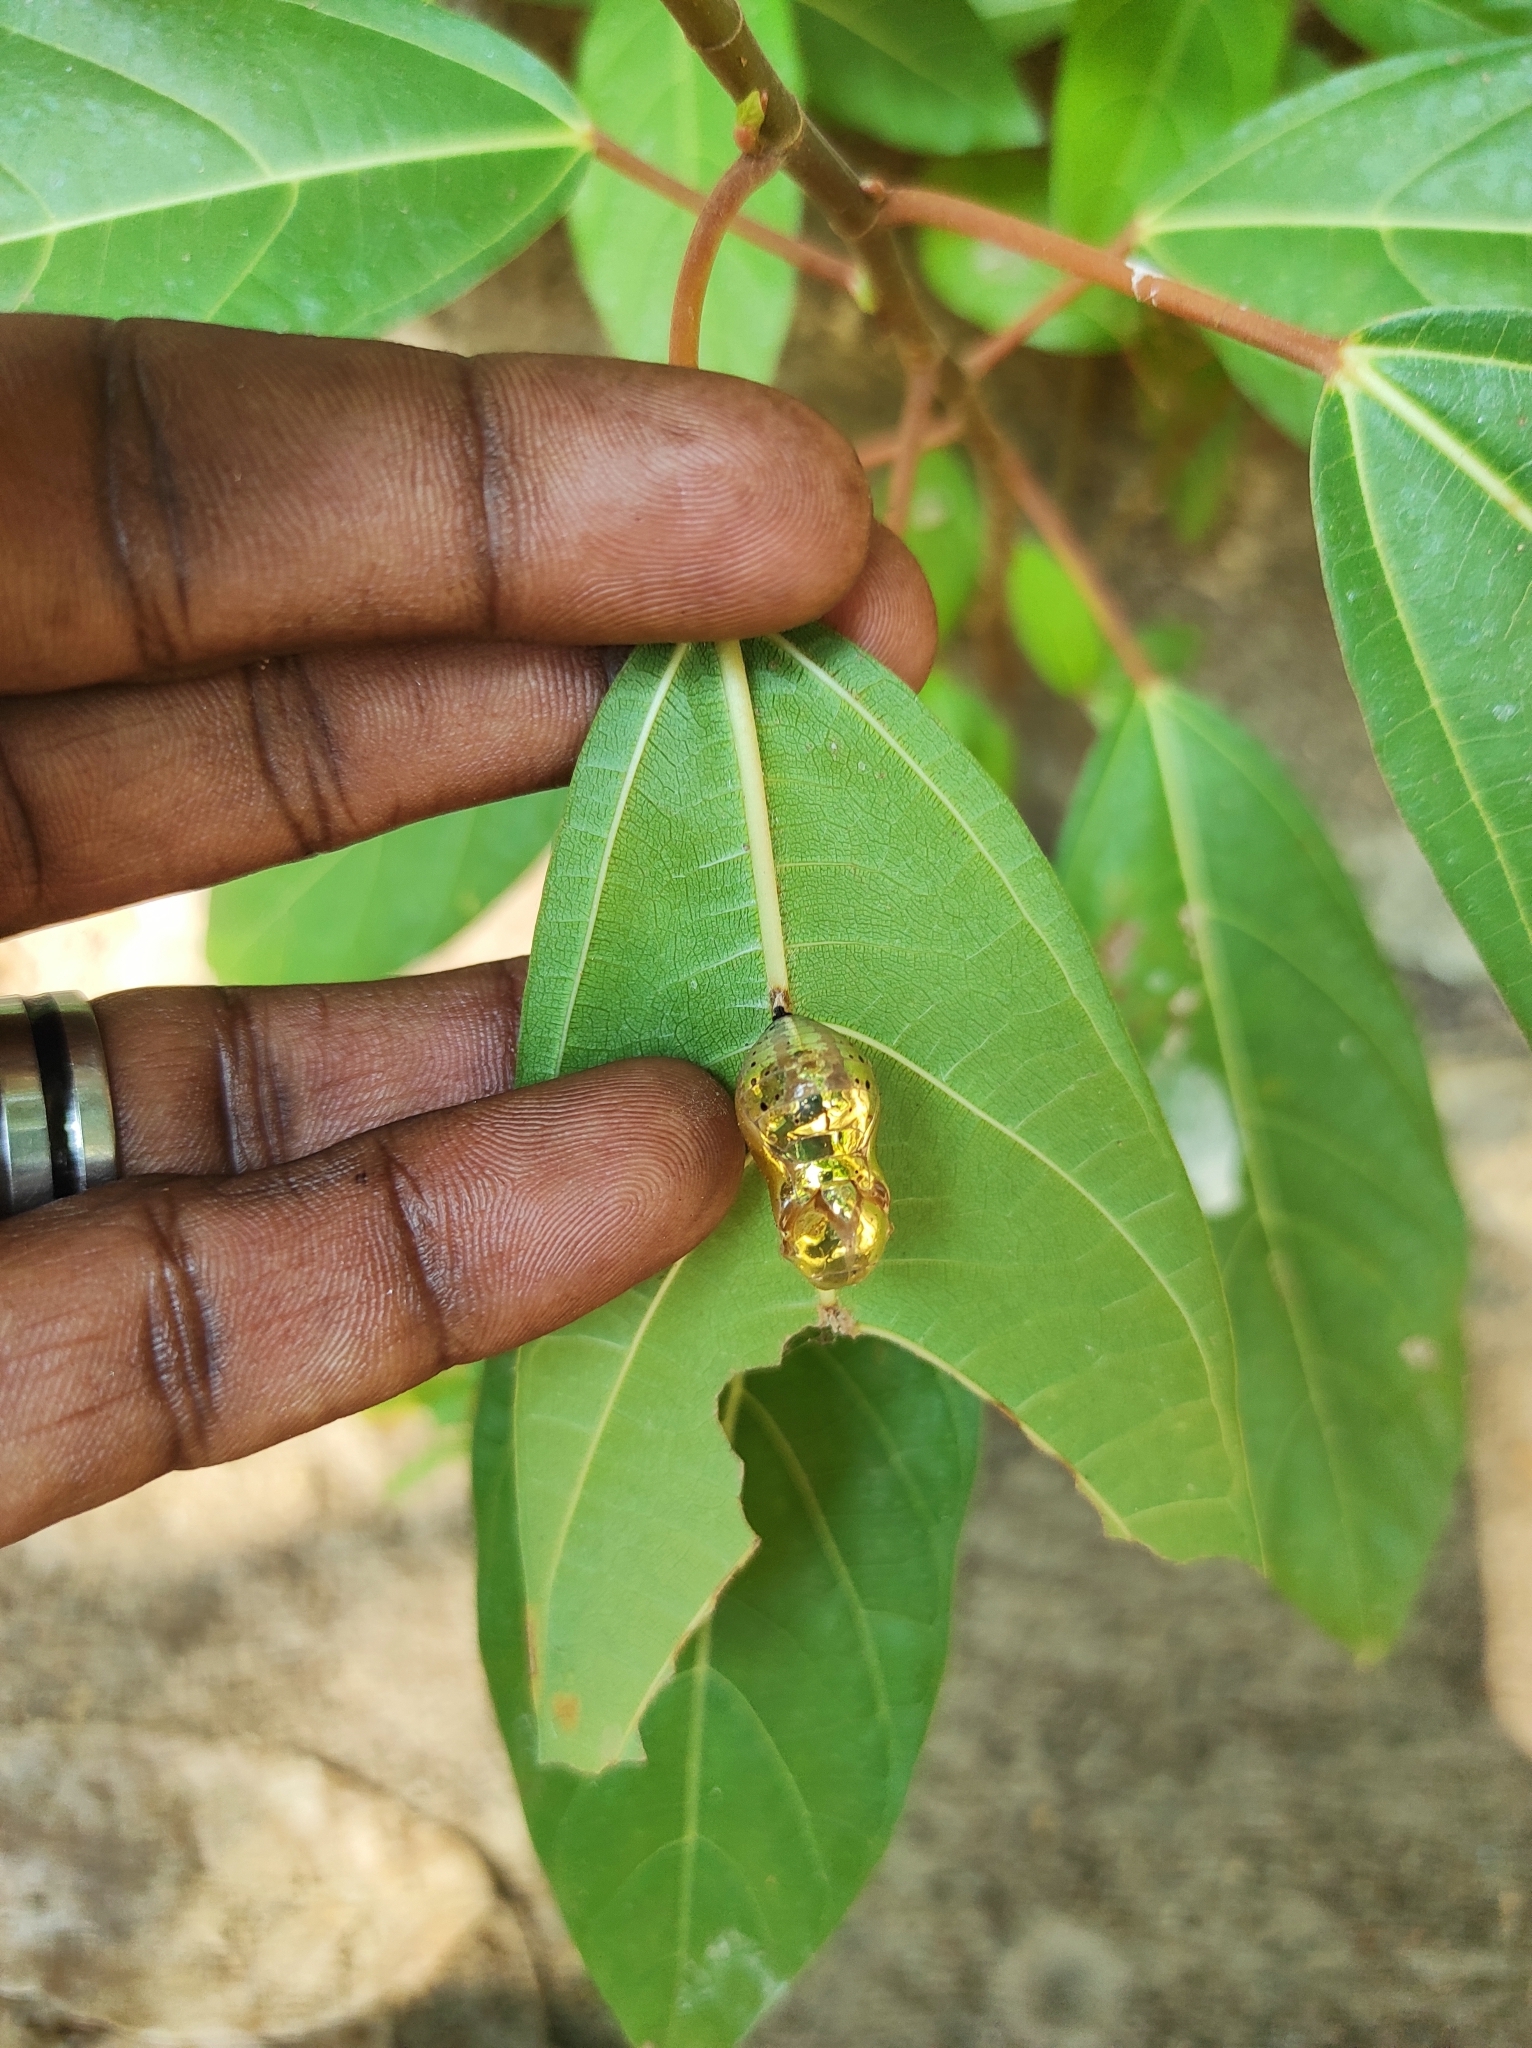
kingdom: Animalia
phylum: Arthropoda
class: Insecta
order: Lepidoptera
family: Nymphalidae
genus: Euploea
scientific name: Euploea core
